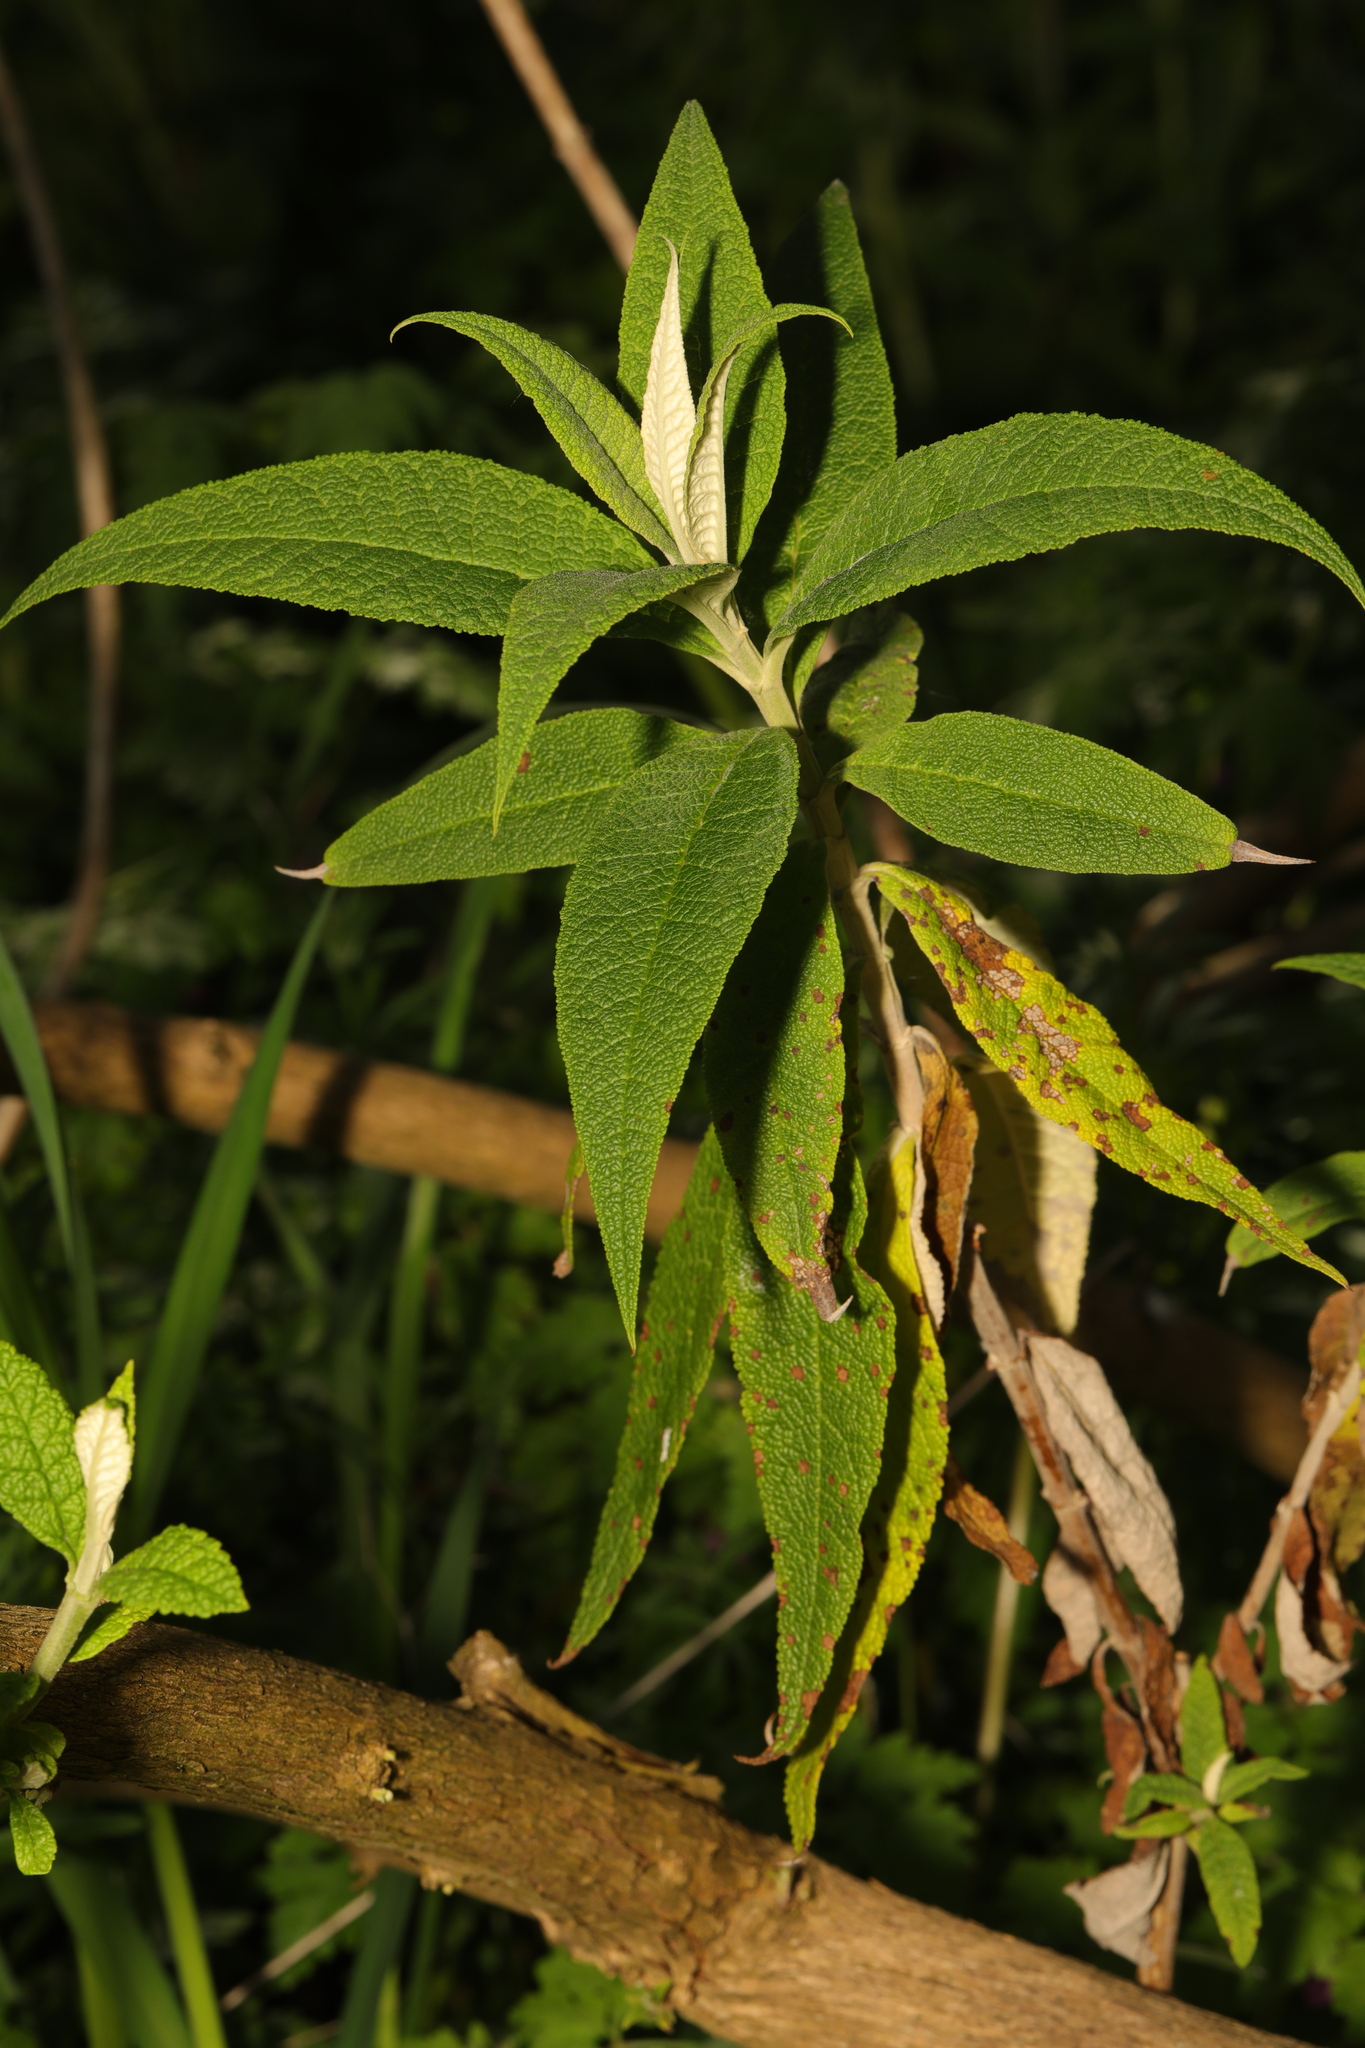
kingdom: Plantae
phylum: Tracheophyta
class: Magnoliopsida
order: Lamiales
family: Scrophulariaceae
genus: Buddleja
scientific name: Buddleja globosa
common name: Orange-ball-tree
